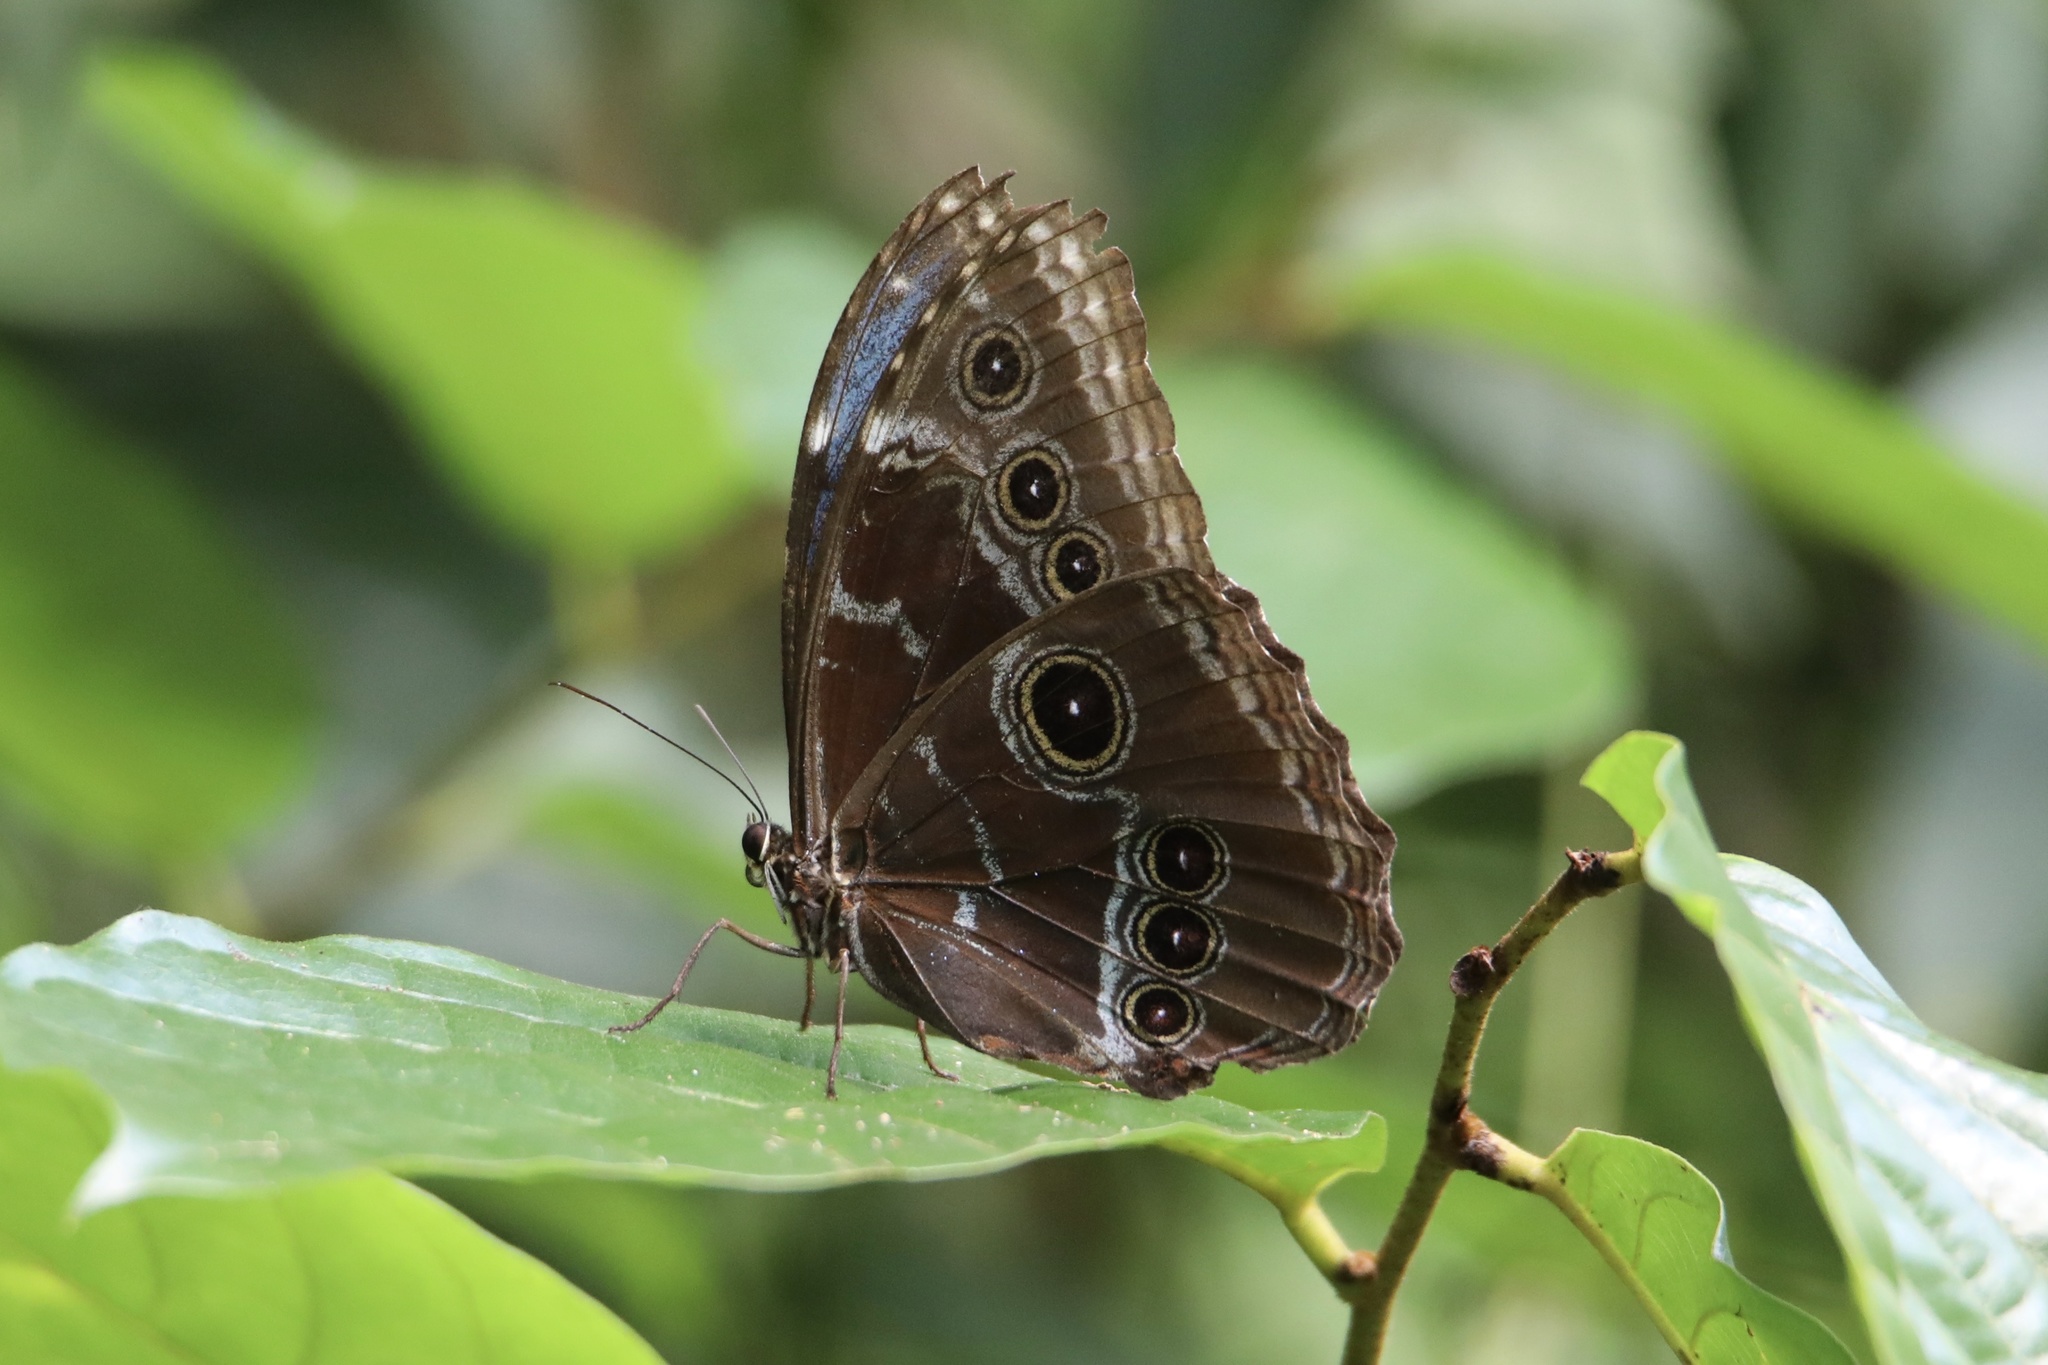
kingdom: Animalia
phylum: Arthropoda
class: Insecta
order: Lepidoptera
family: Nymphalidae
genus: Morpho
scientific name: Morpho helenor
